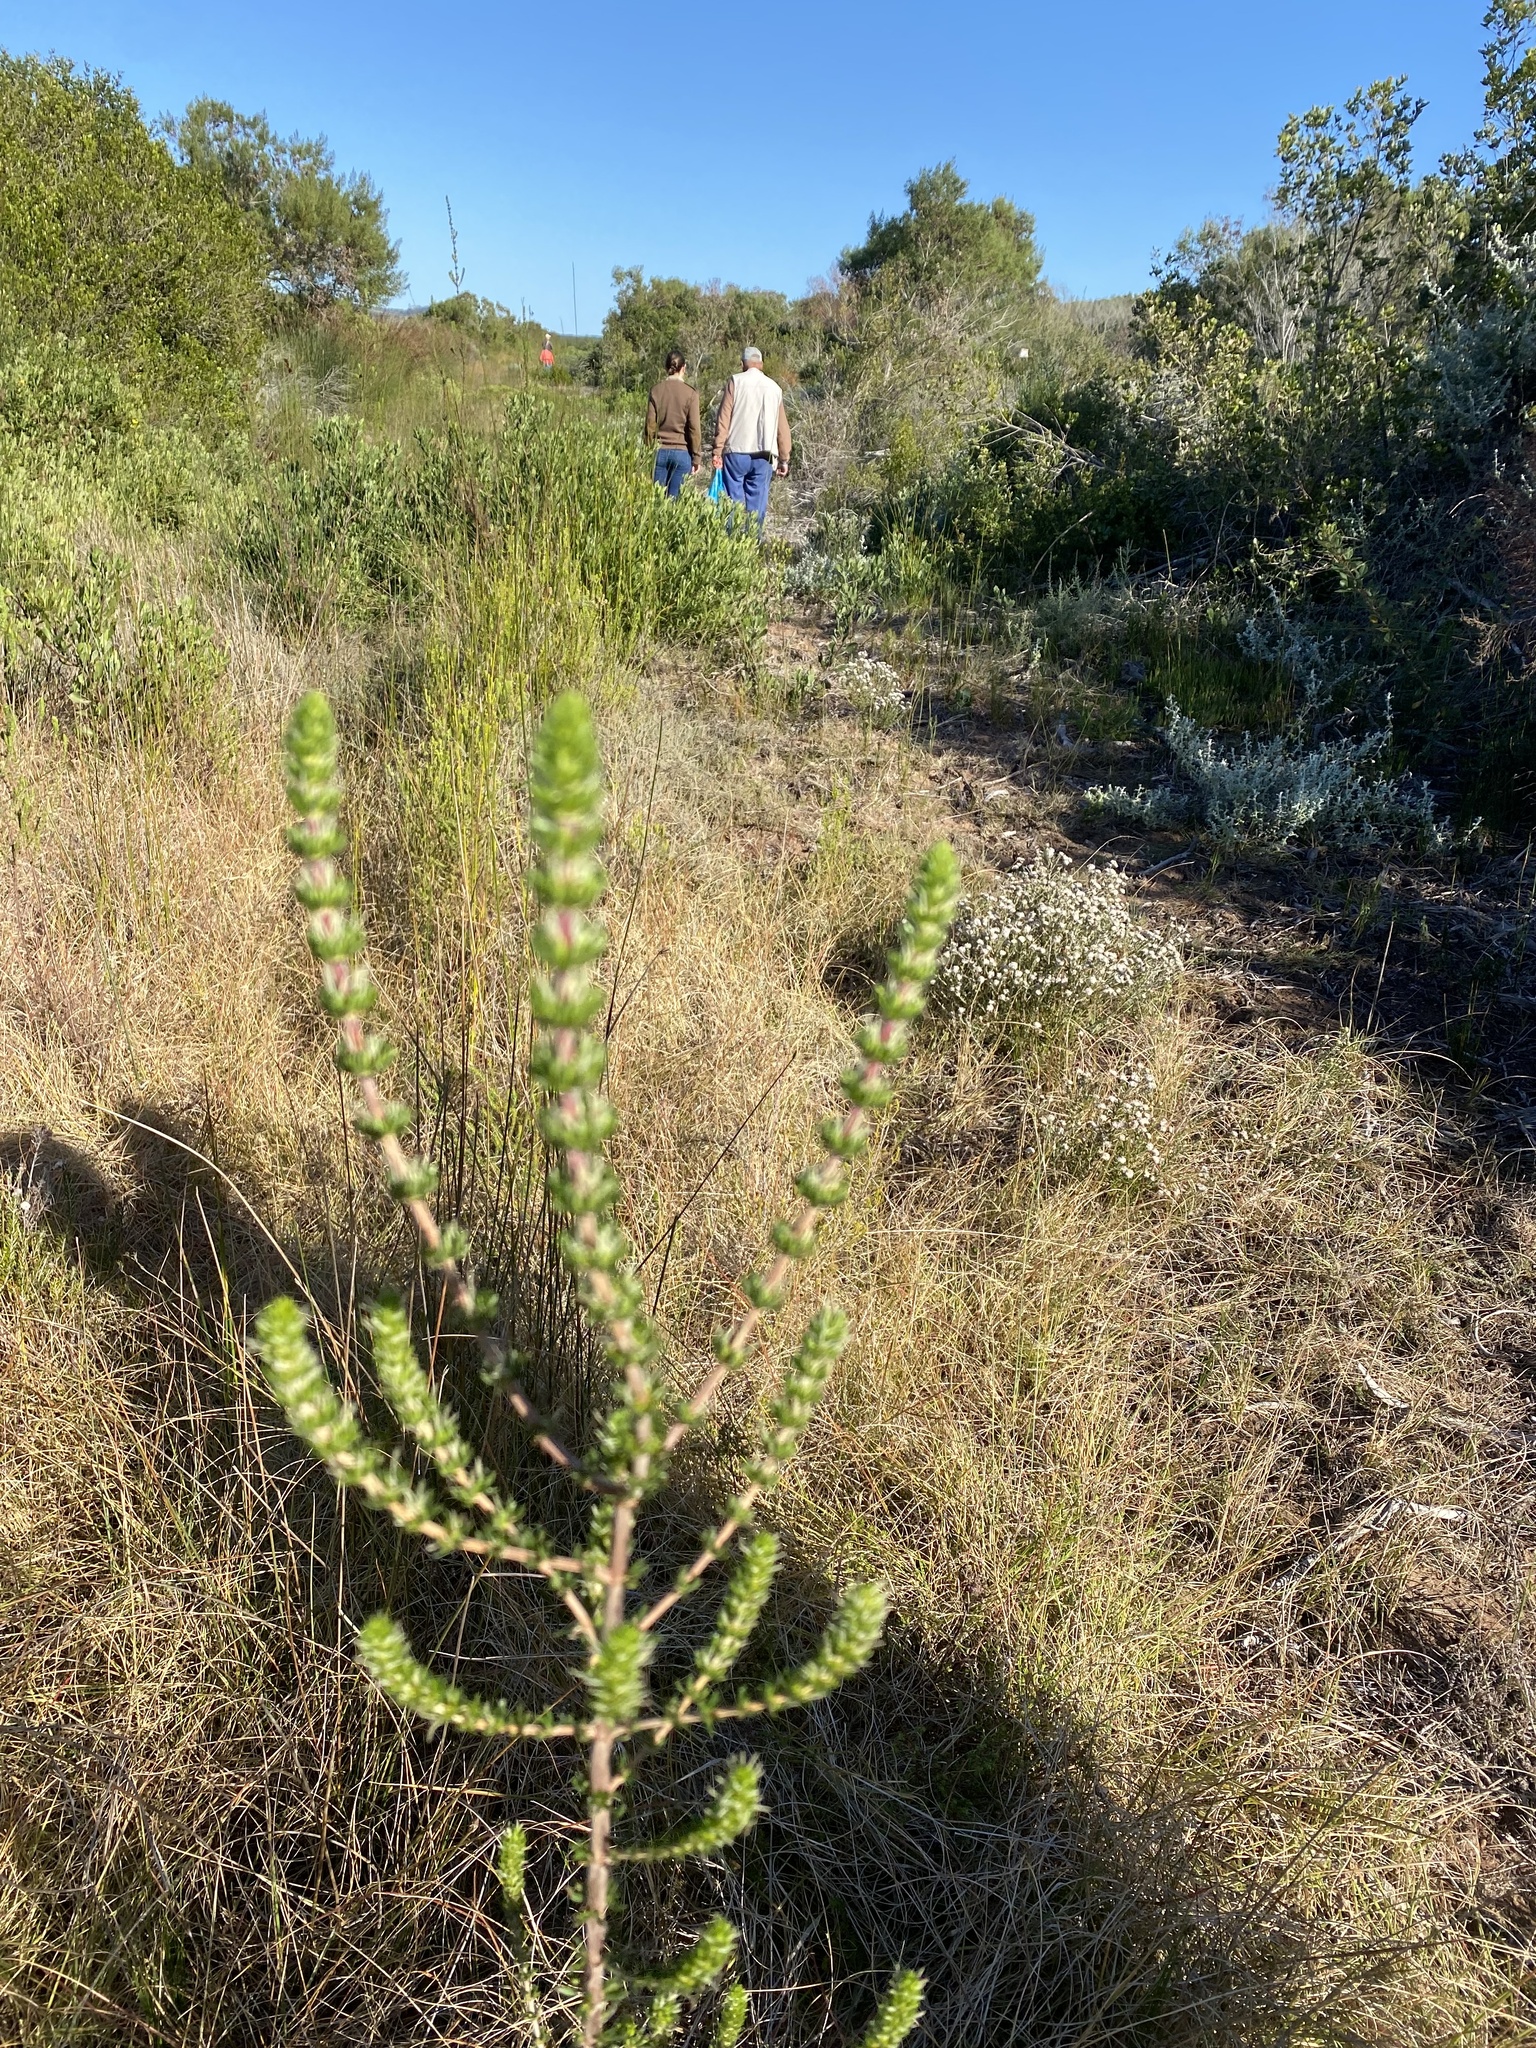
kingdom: Plantae
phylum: Tracheophyta
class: Magnoliopsida
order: Gentianales
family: Rubiaceae
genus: Anthospermum
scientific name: Anthospermum paniculatum
